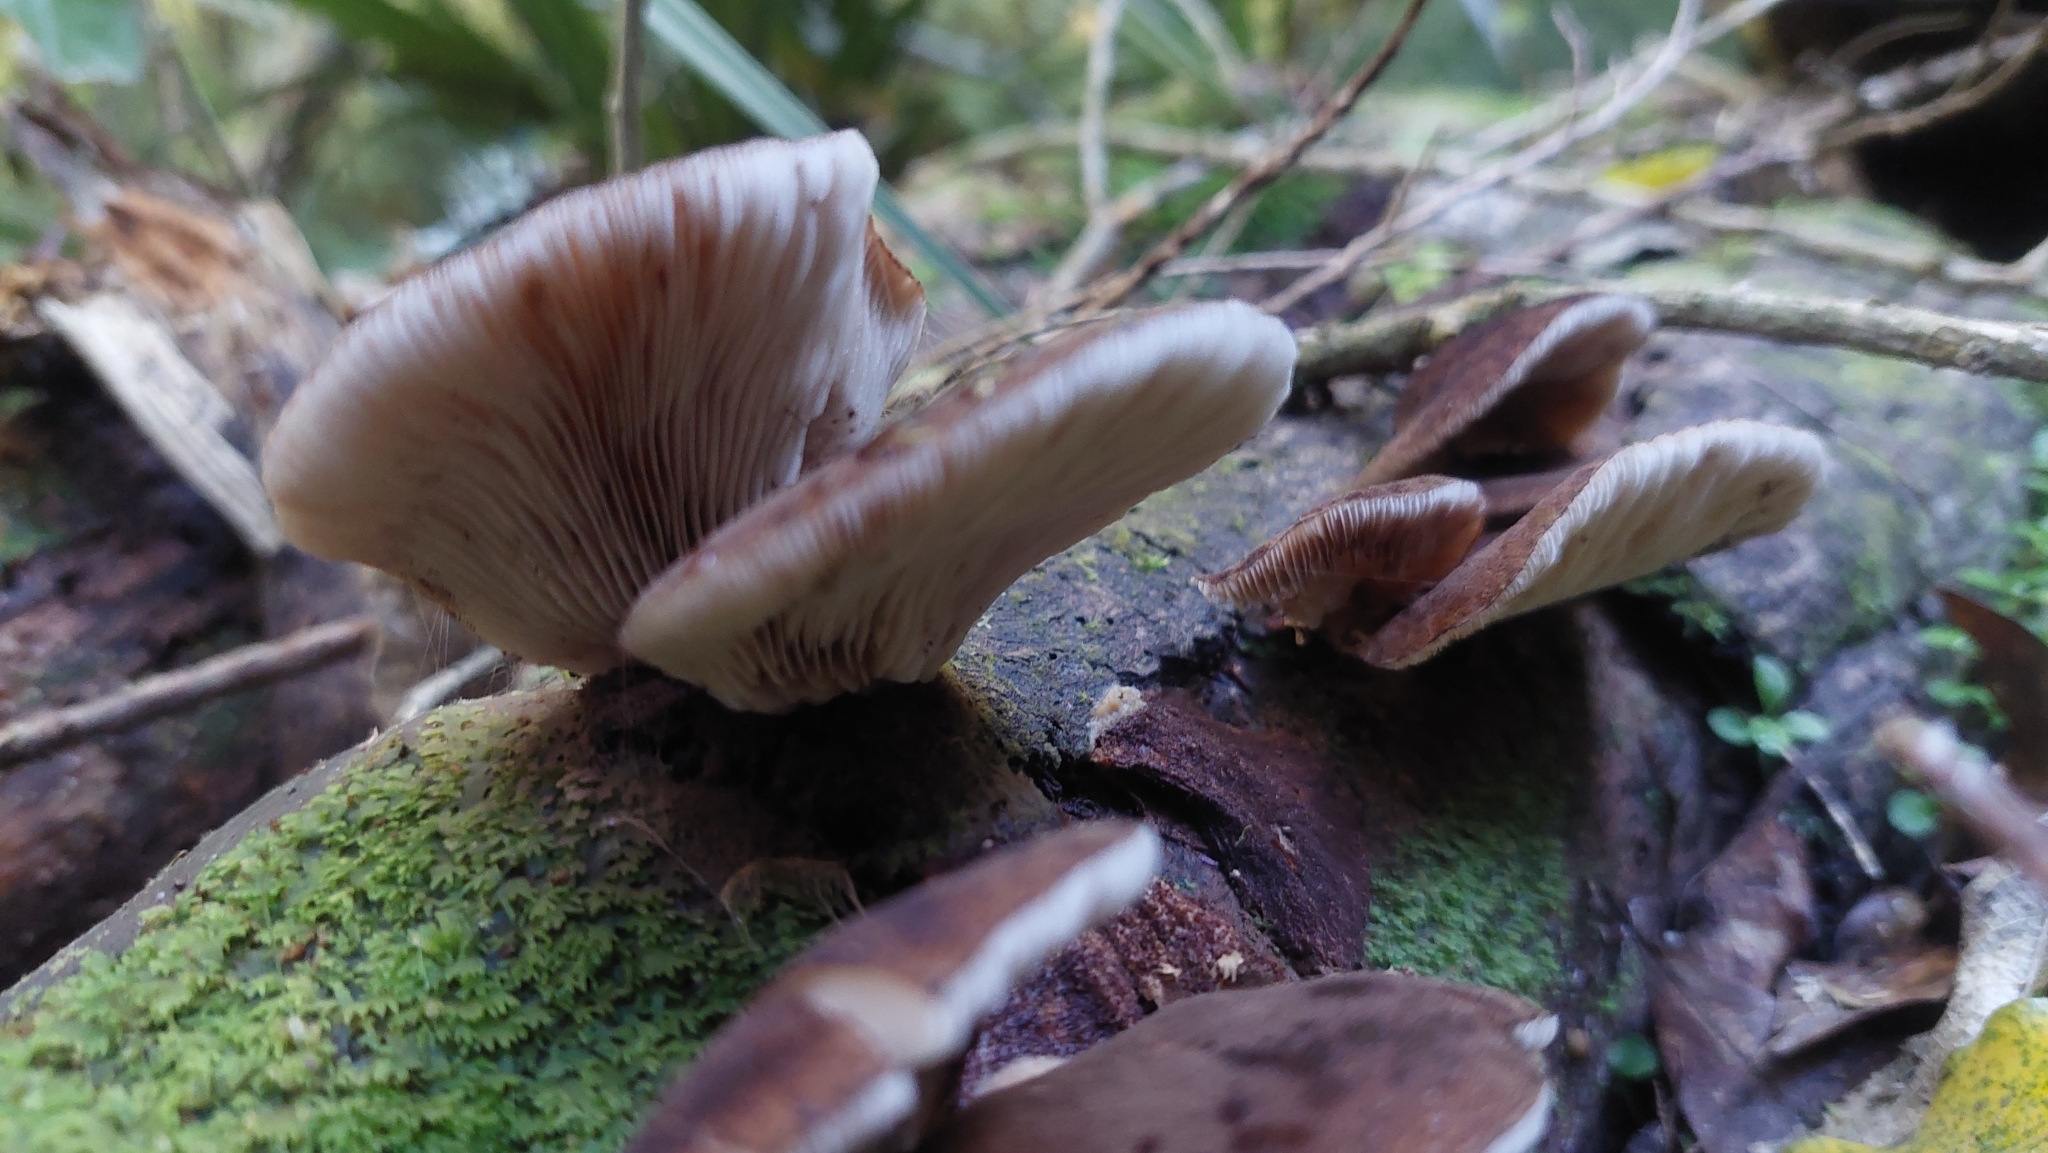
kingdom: Fungi
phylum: Basidiomycota
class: Agaricomycetes
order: Agaricales
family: Crepidotaceae
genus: Crepidotus
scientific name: Crepidotus fuscovelutinus
